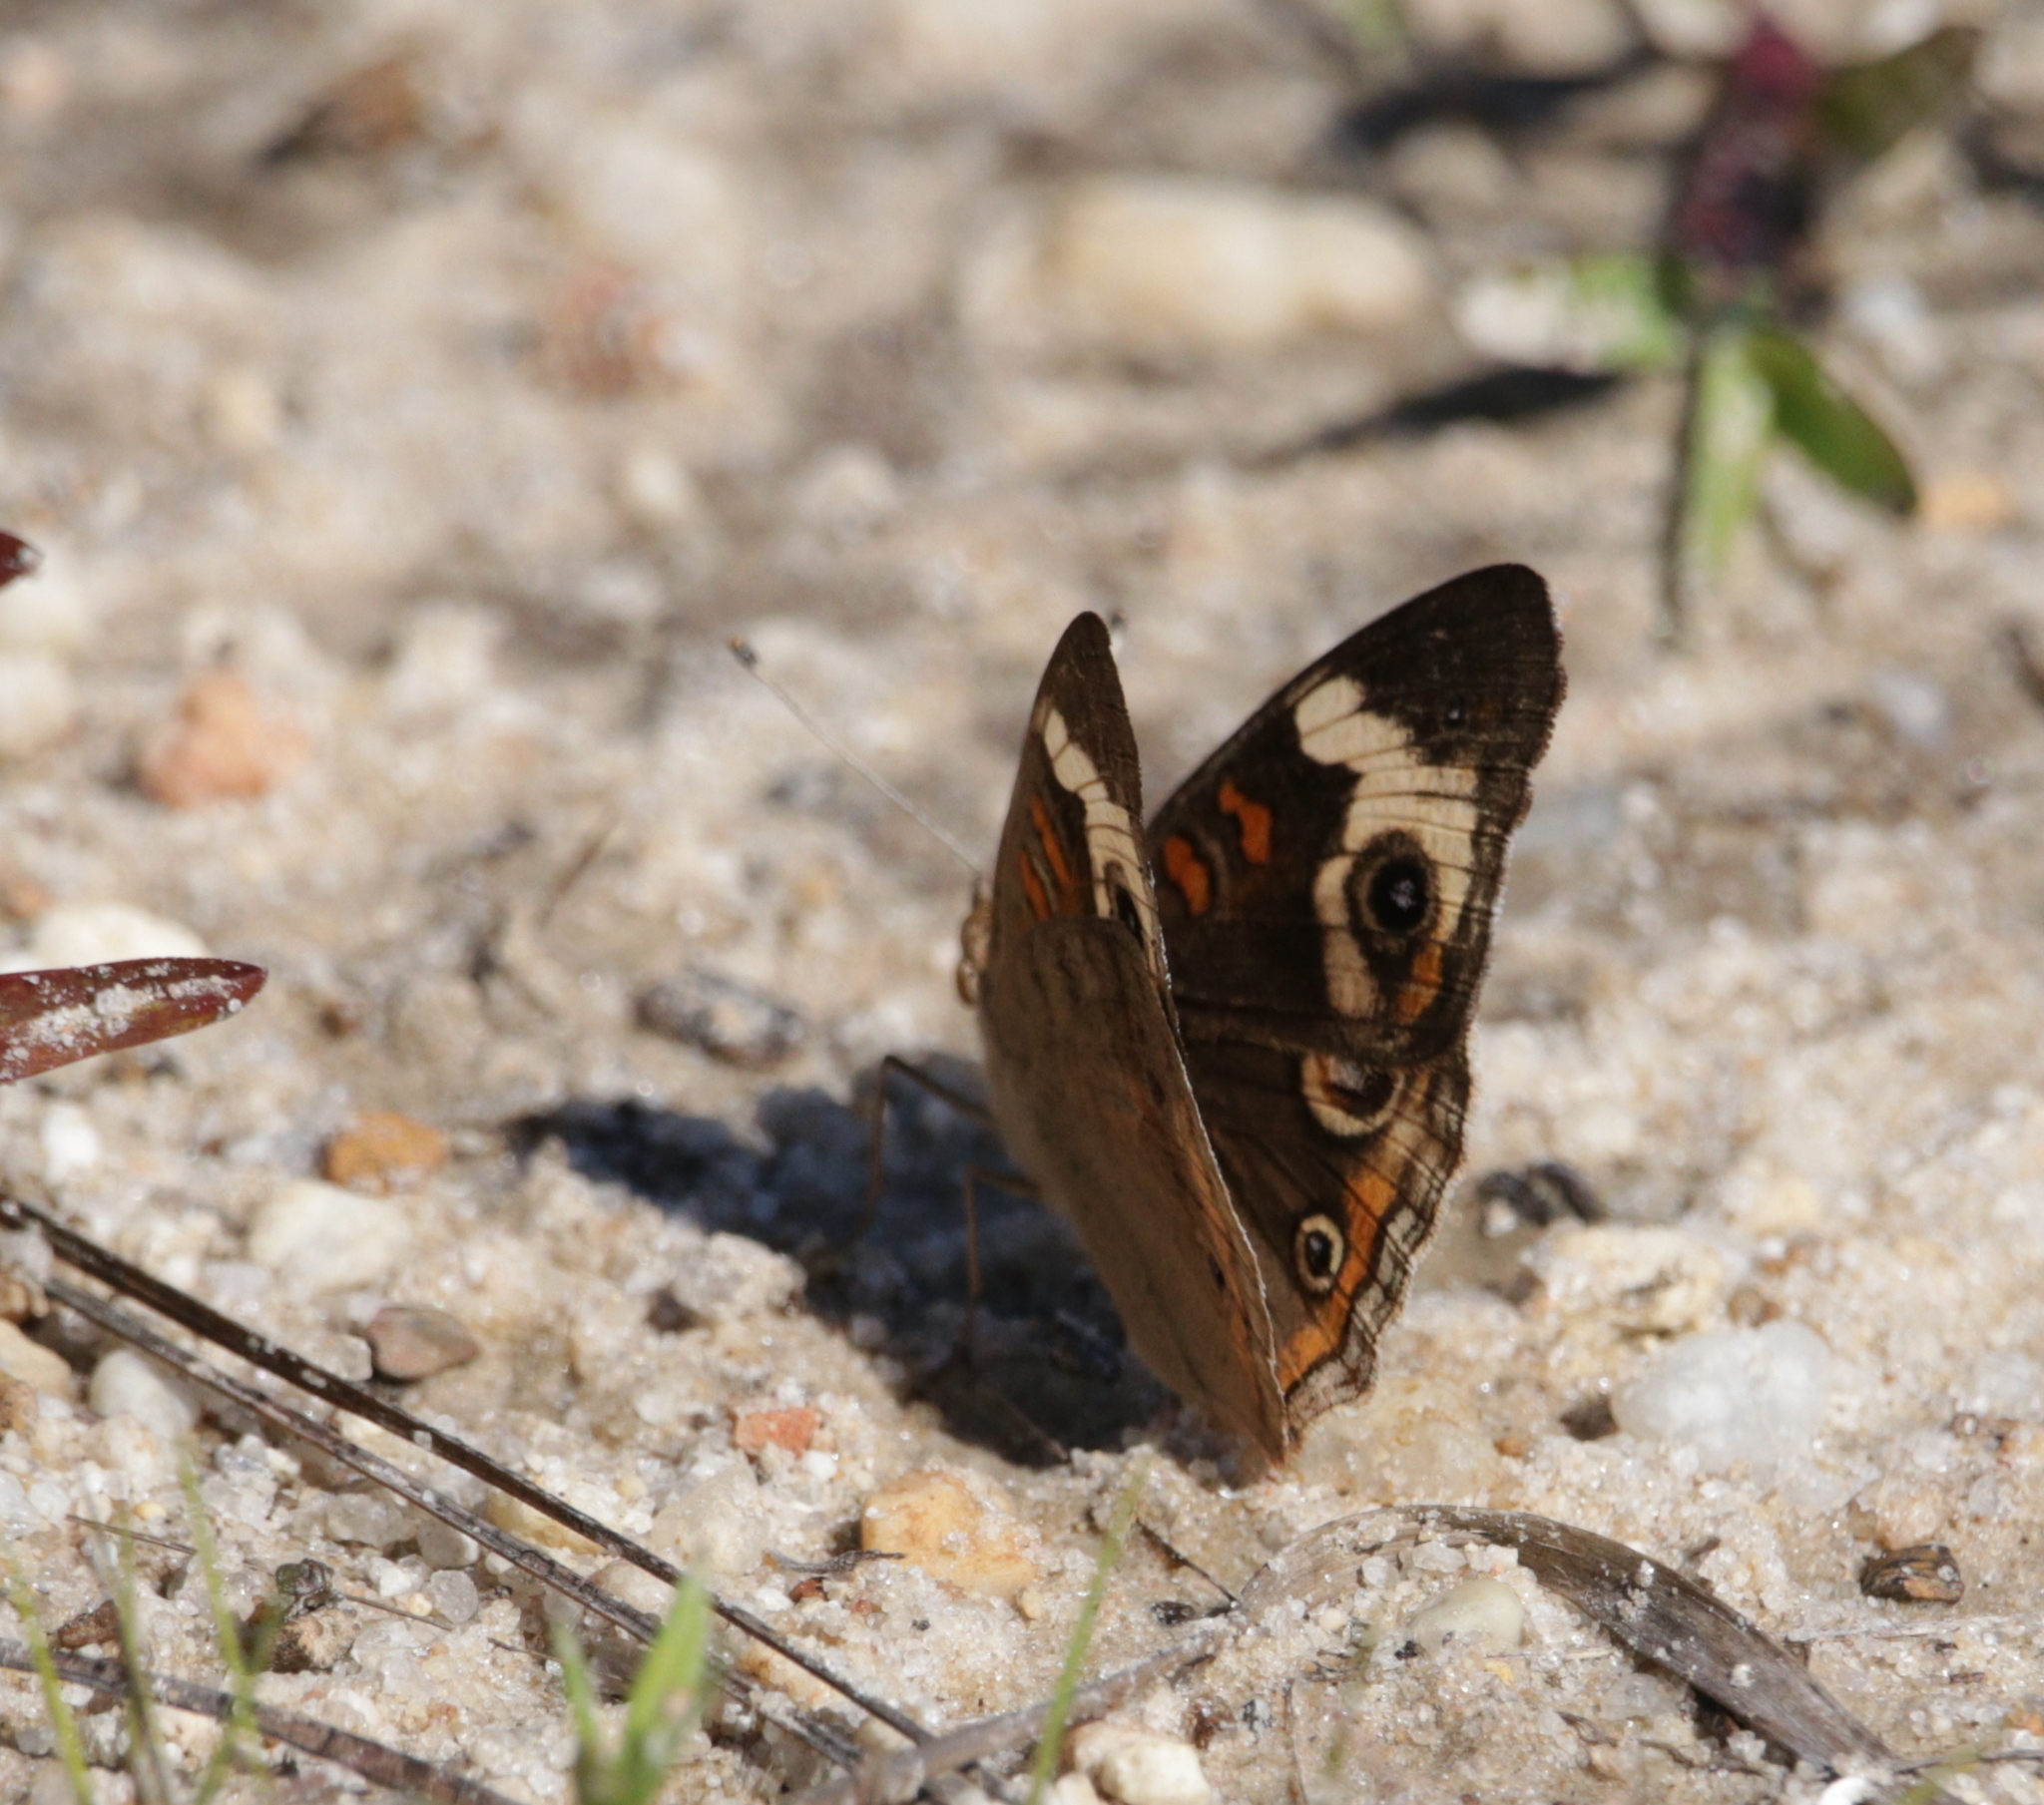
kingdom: Animalia
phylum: Arthropoda
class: Insecta
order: Lepidoptera
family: Nymphalidae
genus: Junonia
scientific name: Junonia coenia
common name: Common buckeye
